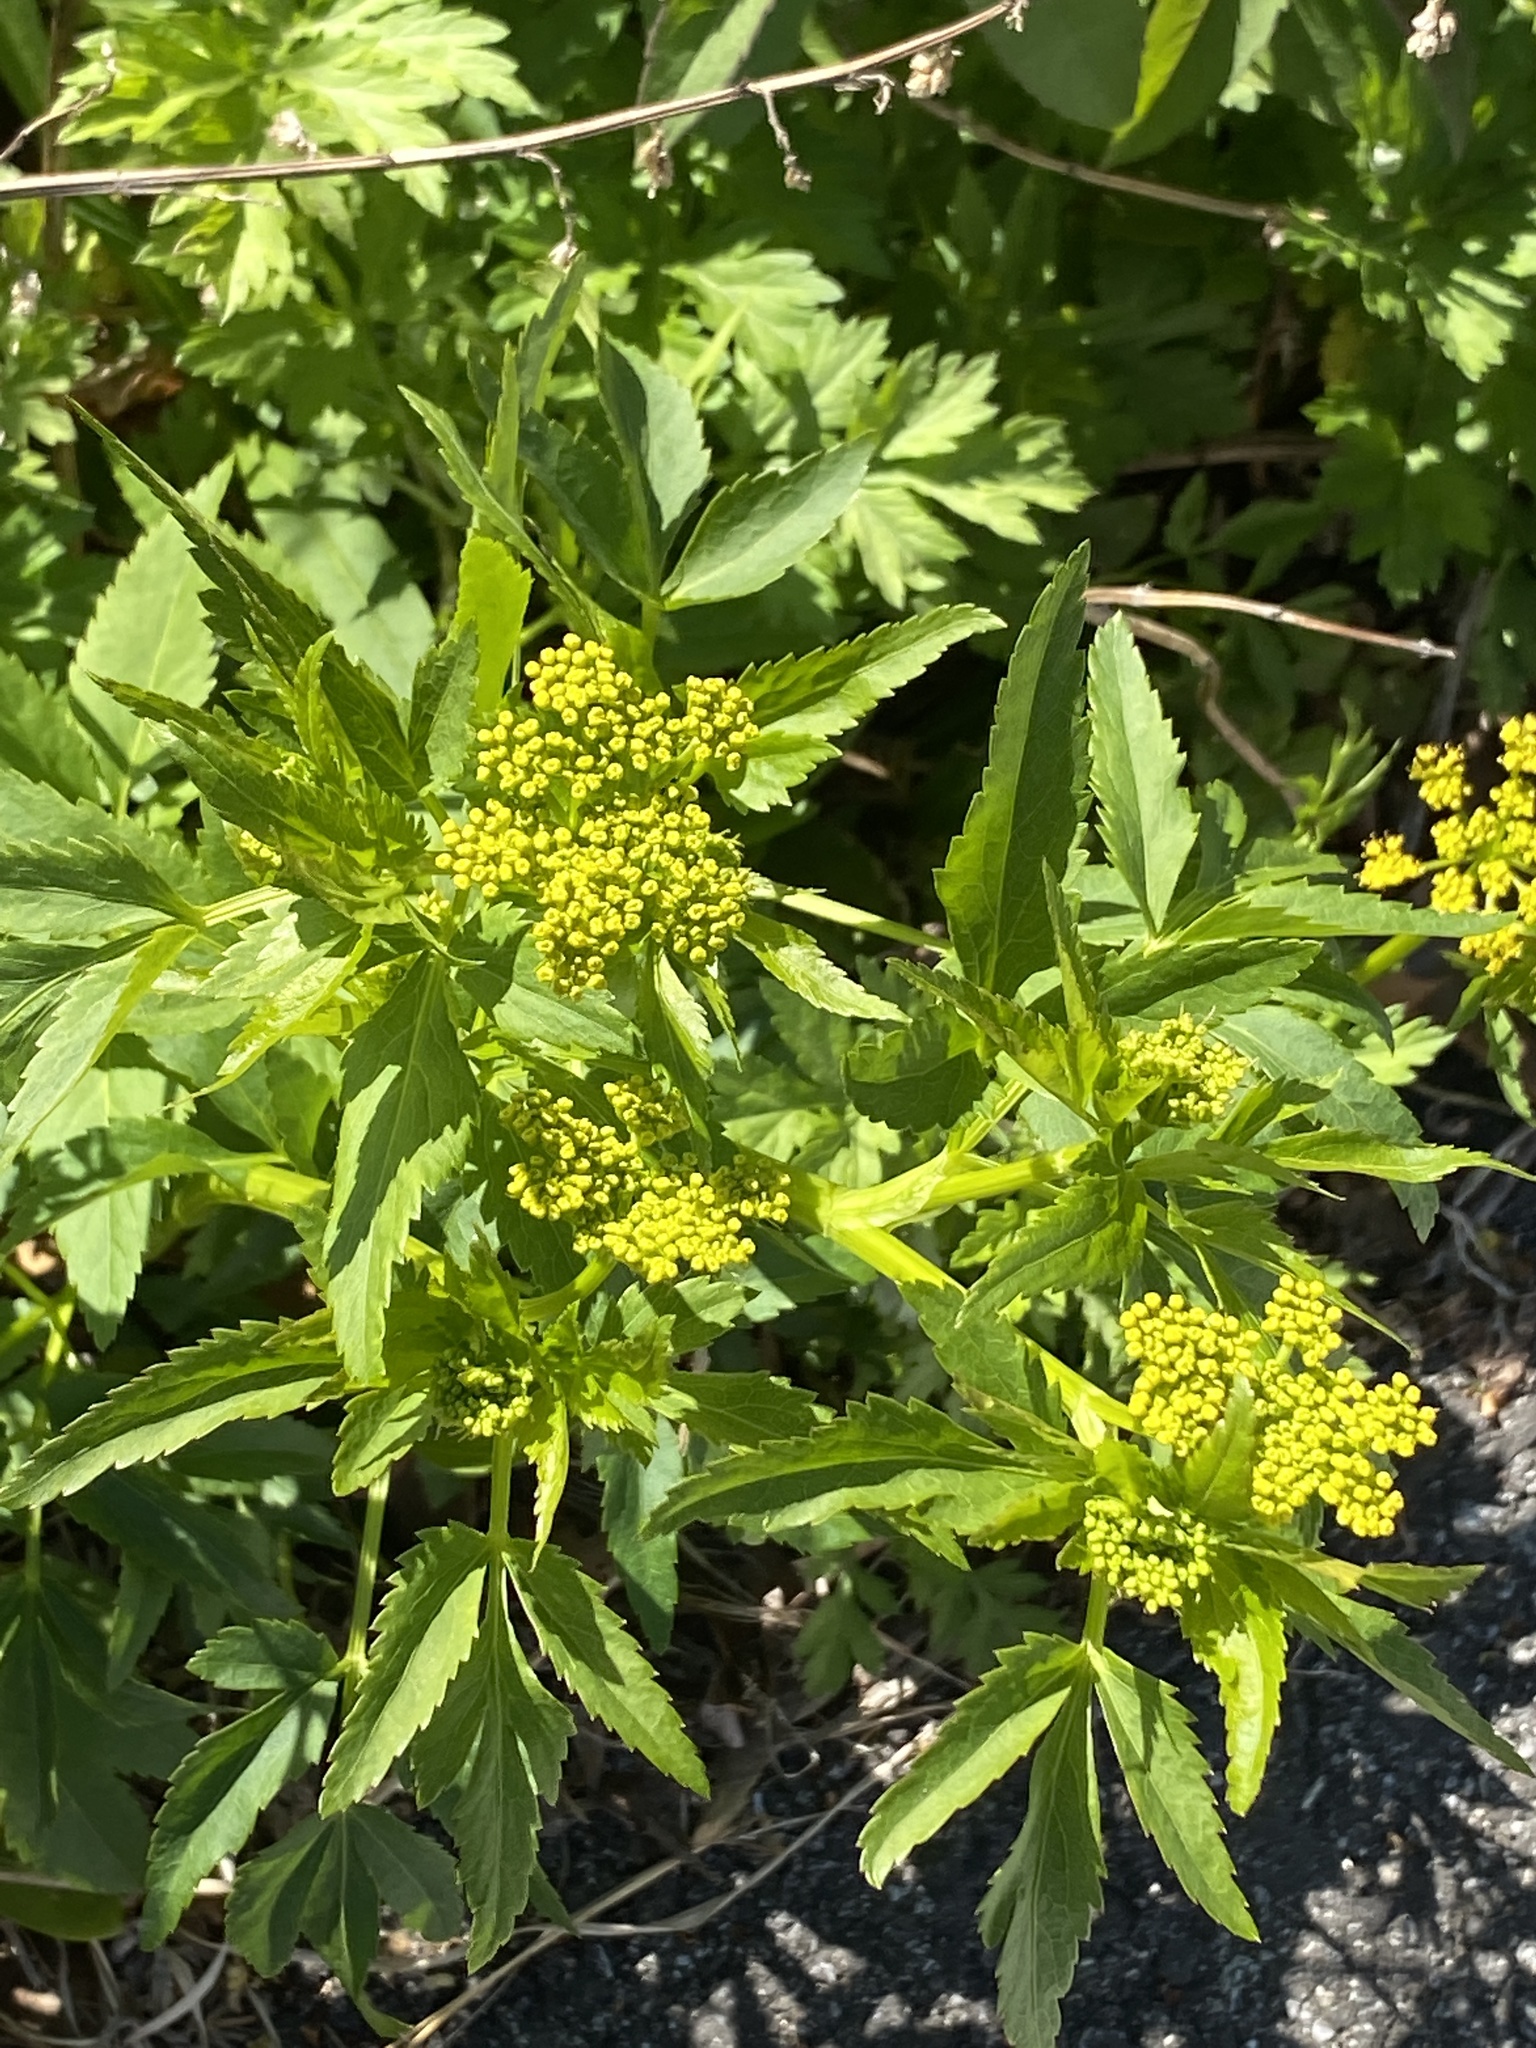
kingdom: Plantae
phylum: Tracheophyta
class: Magnoliopsida
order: Apiales
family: Apiaceae
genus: Zizia
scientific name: Zizia aurea
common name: Golden alexanders
